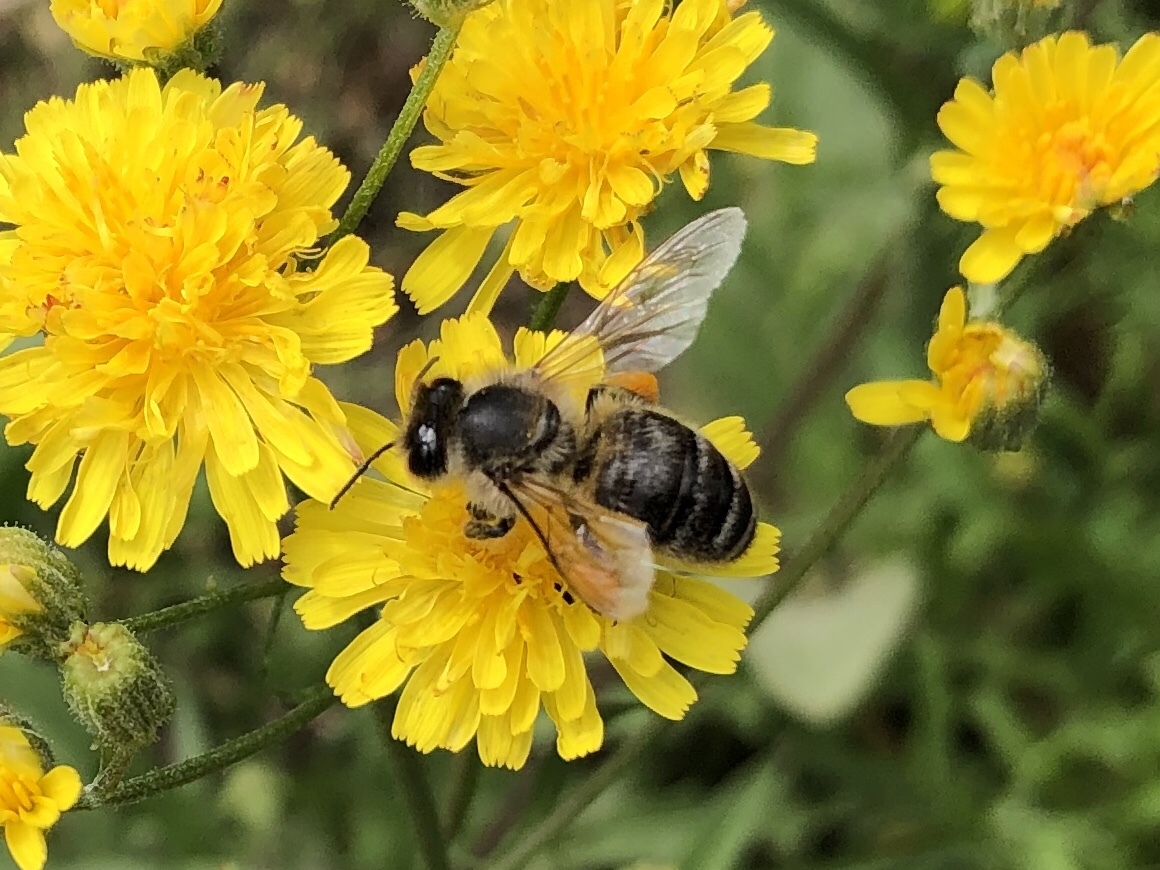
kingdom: Animalia
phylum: Arthropoda
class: Insecta
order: Hymenoptera
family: Apidae
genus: Apis
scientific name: Apis mellifera
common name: Honey bee
